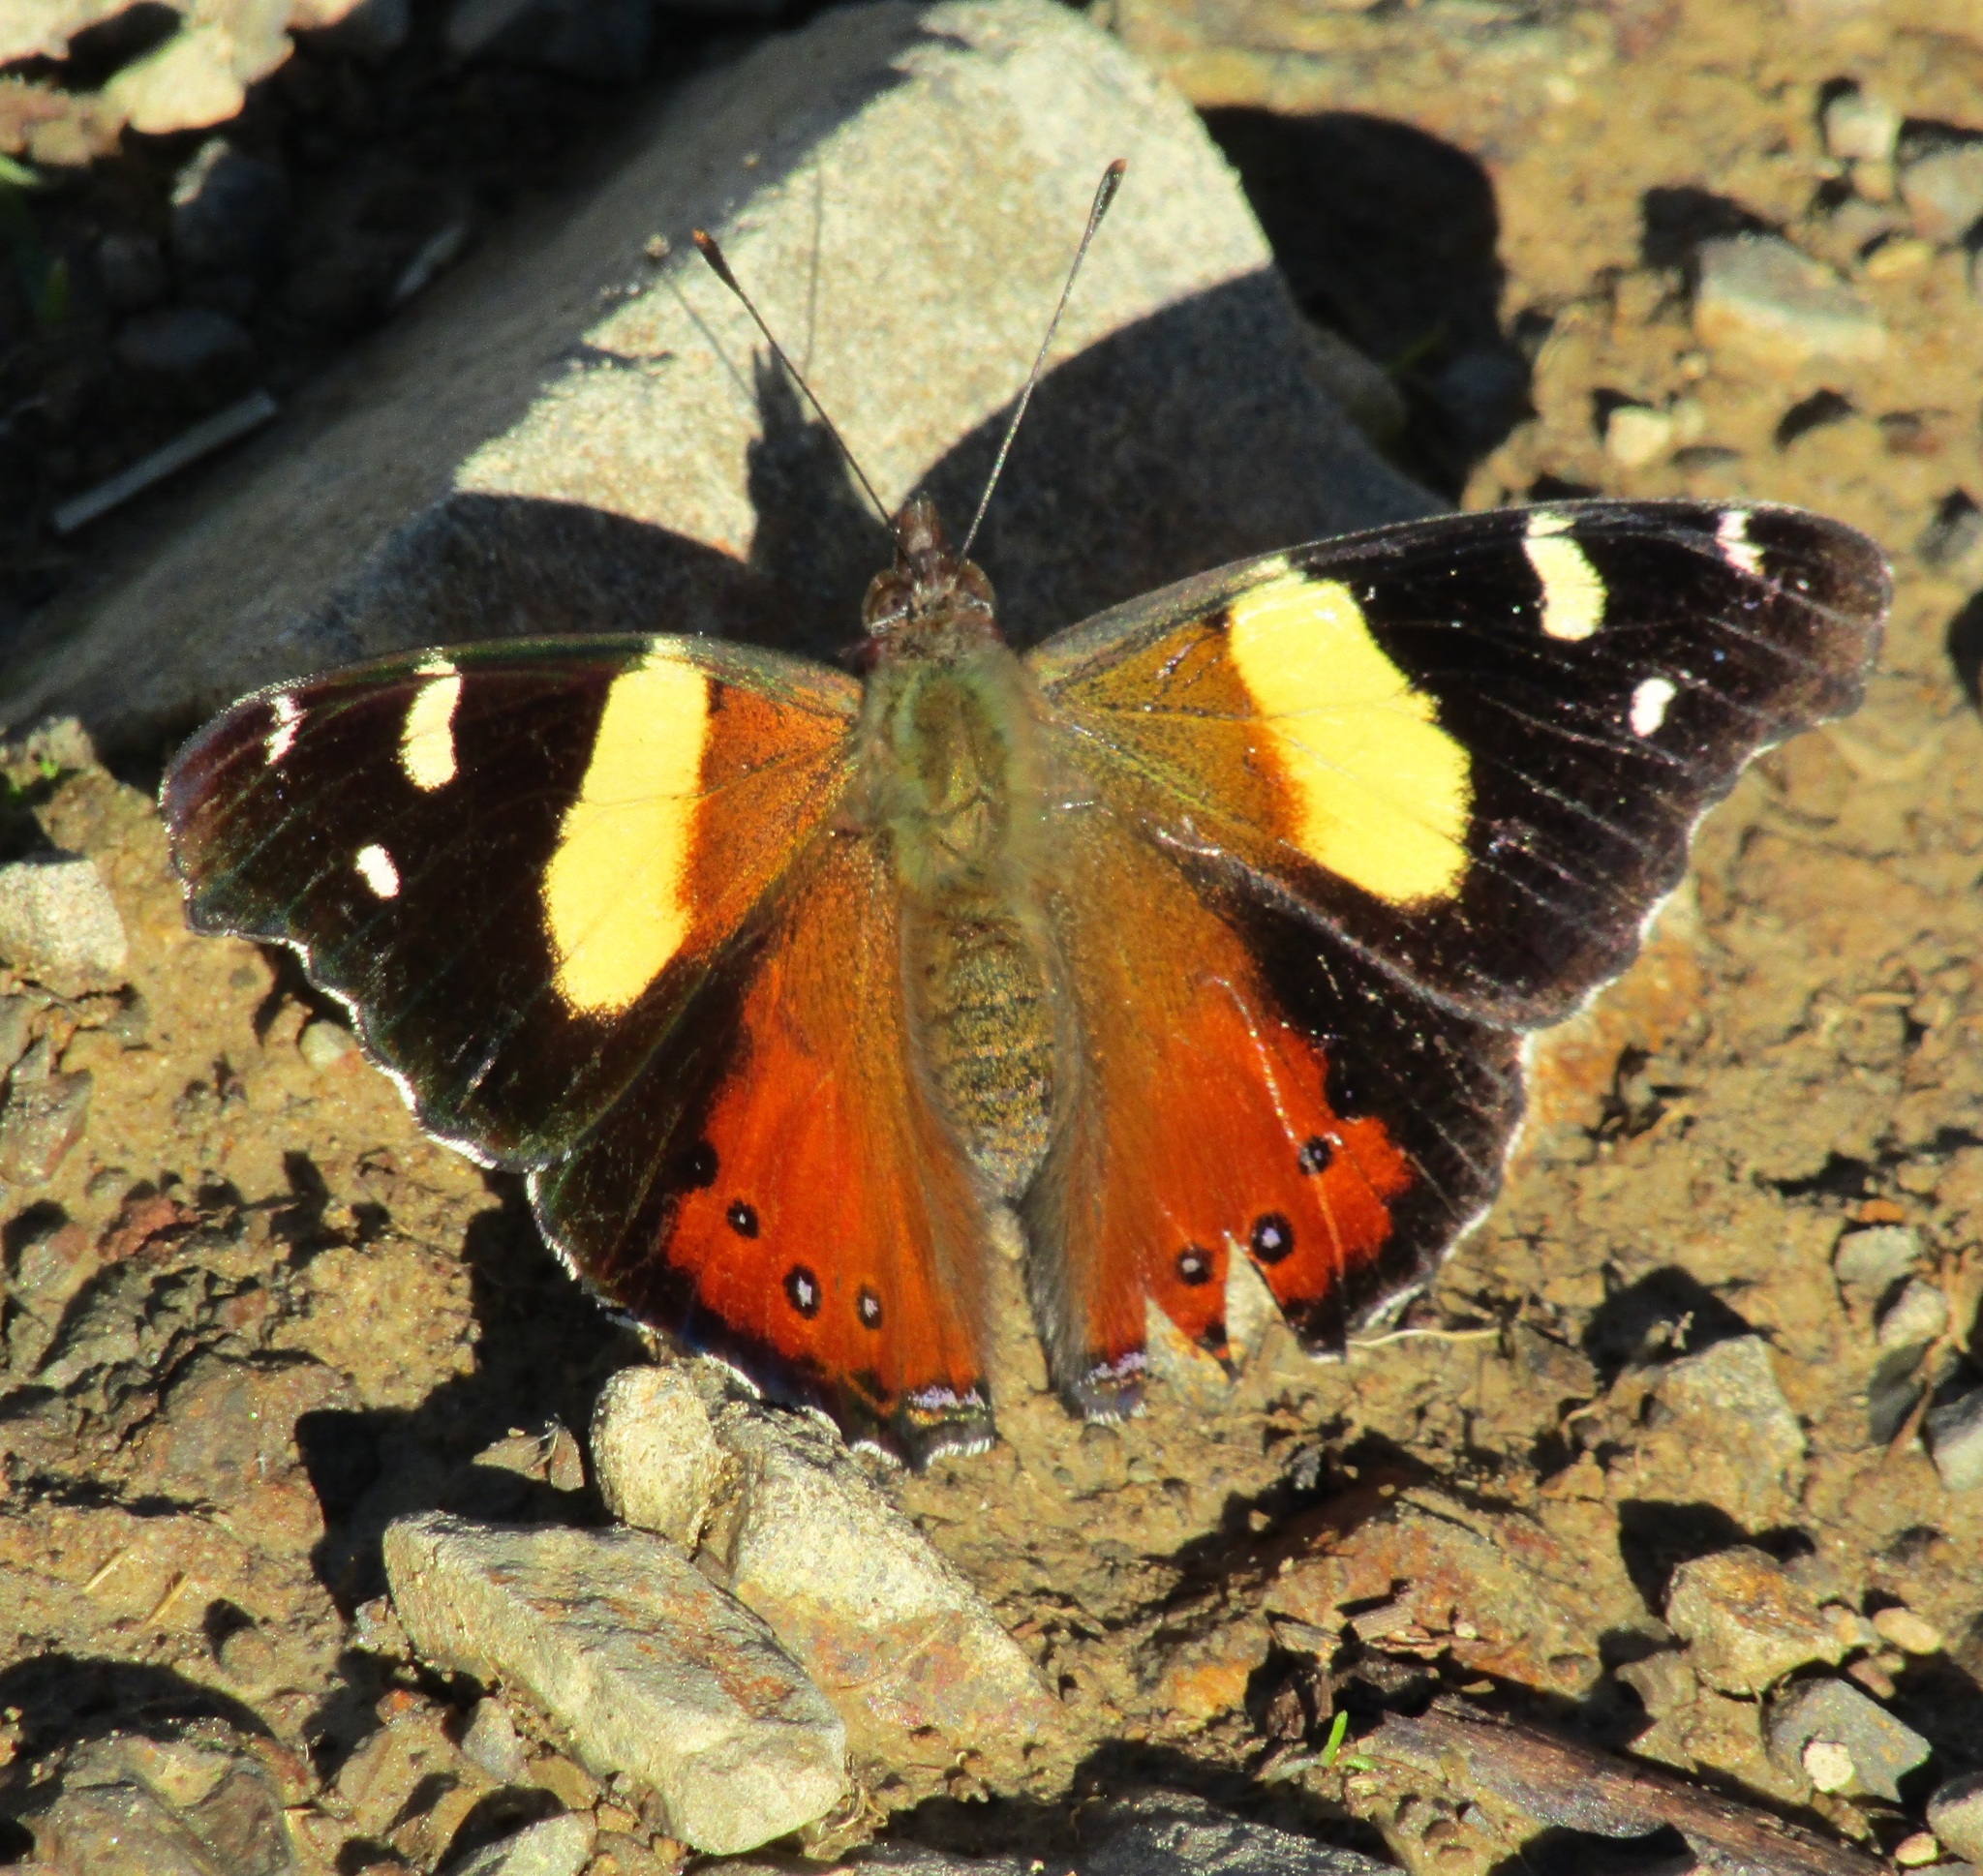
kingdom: Animalia
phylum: Arthropoda
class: Insecta
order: Lepidoptera
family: Nymphalidae
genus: Vanessa
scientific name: Vanessa itea
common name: Yellow admiral
